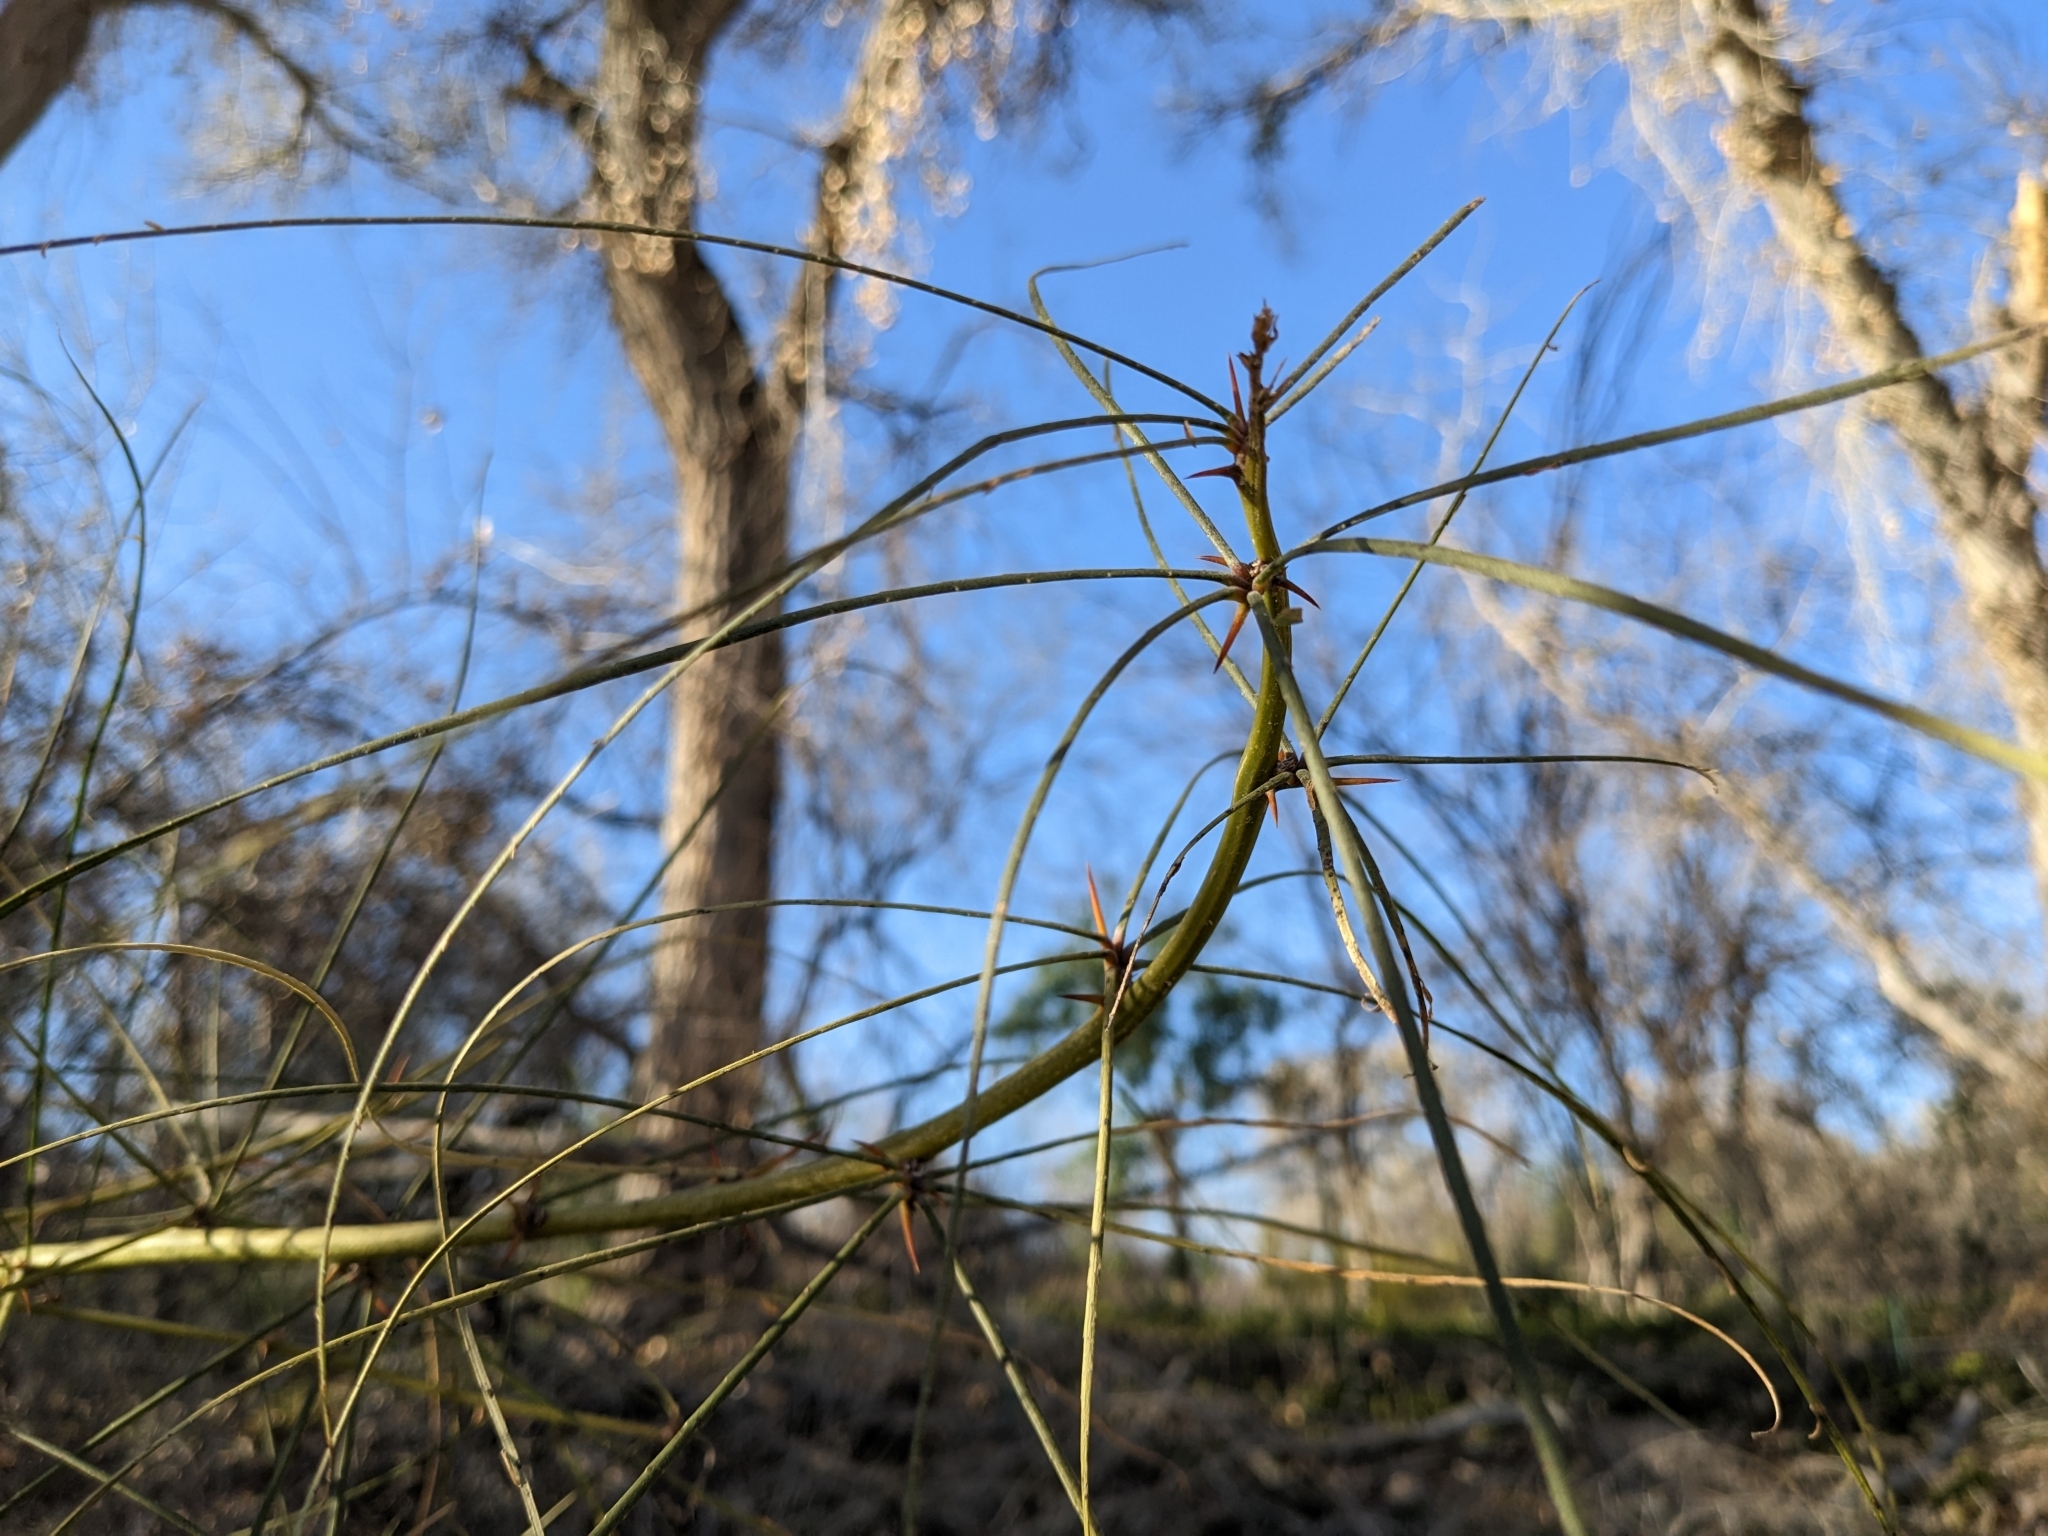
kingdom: Plantae
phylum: Tracheophyta
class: Magnoliopsida
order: Fabales
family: Fabaceae
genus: Parkinsonia
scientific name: Parkinsonia aculeata
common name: Jerusalem thorn
